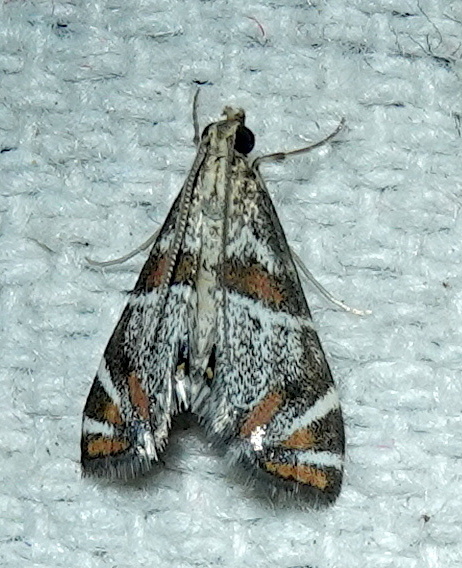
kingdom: Animalia
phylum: Arthropoda
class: Insecta
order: Lepidoptera
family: Crambidae
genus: Petrophila
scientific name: Petrophila jaliscalis
